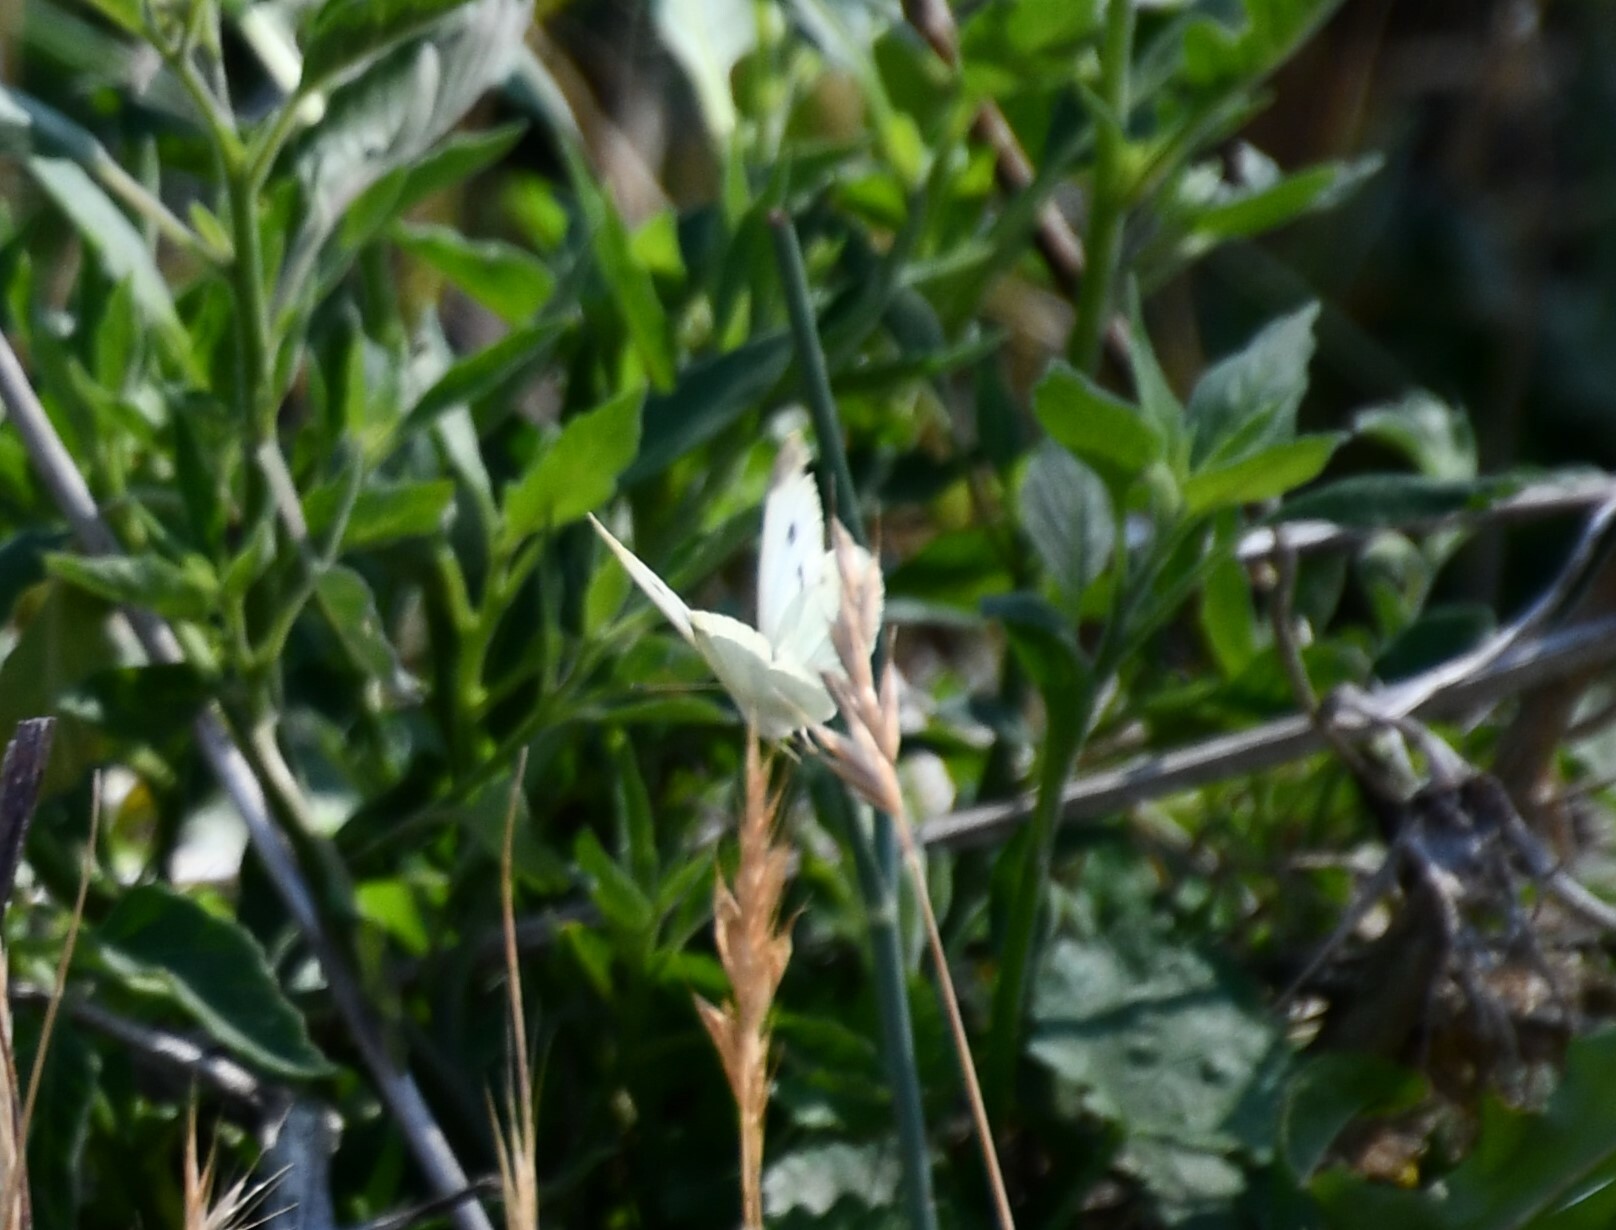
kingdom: Animalia
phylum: Arthropoda
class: Insecta
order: Lepidoptera
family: Pieridae
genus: Pieris
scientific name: Pieris rapae
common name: Small white
